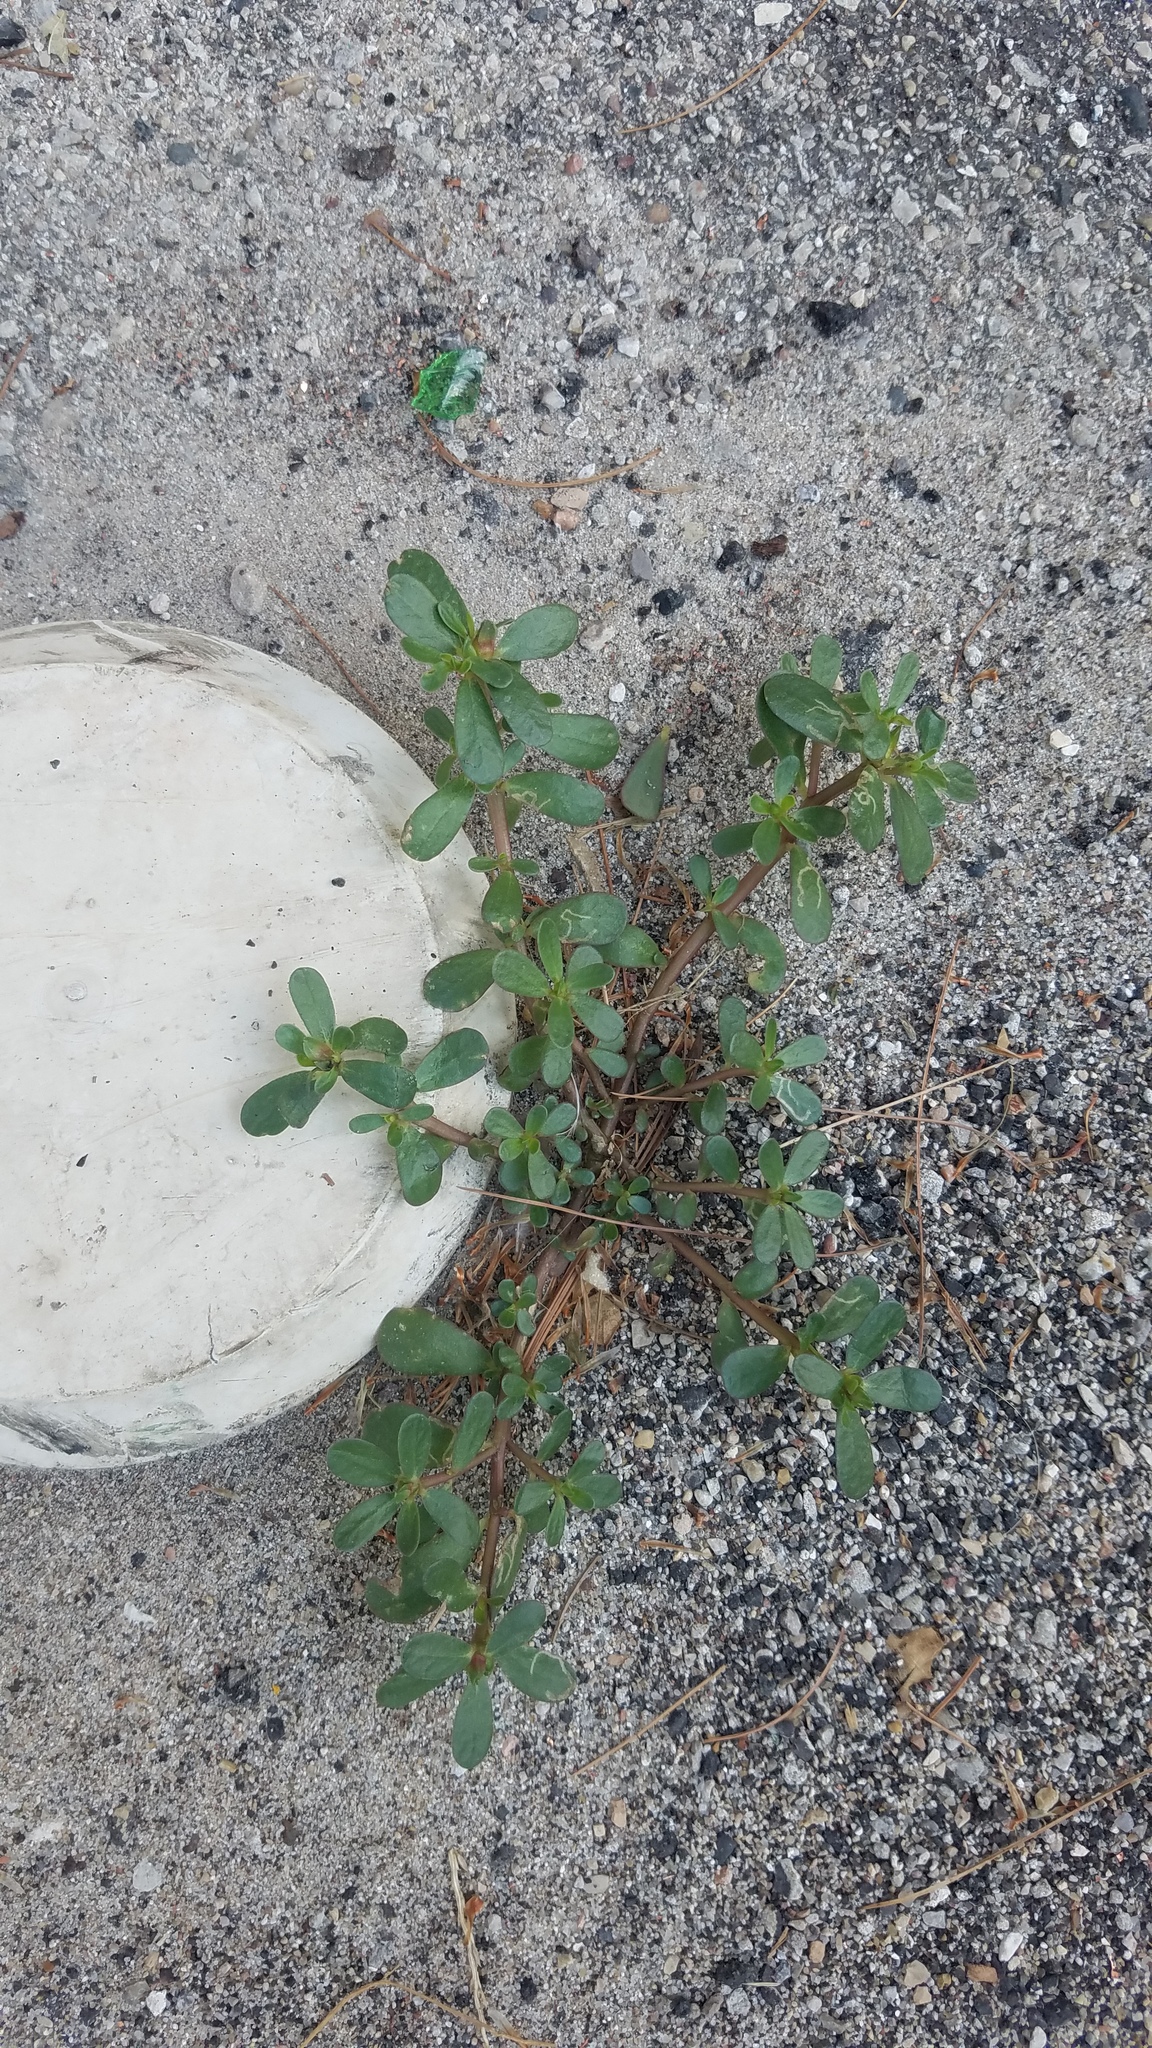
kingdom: Plantae
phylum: Tracheophyta
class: Magnoliopsida
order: Caryophyllales
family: Portulacaceae
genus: Portulaca
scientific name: Portulaca oleracea
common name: Common purslane
